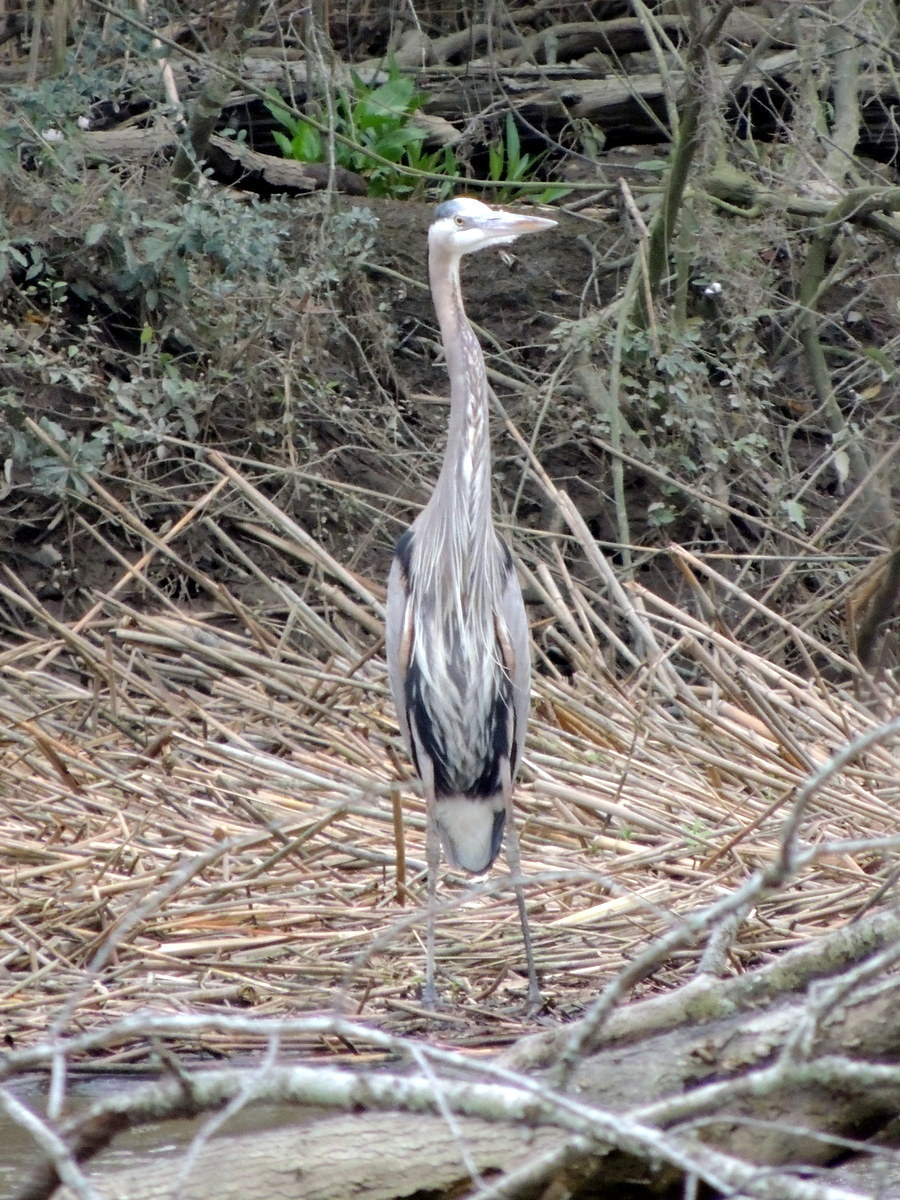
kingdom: Animalia
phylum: Chordata
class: Aves
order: Pelecaniformes
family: Ardeidae
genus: Ardea
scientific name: Ardea herodias
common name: Great blue heron
